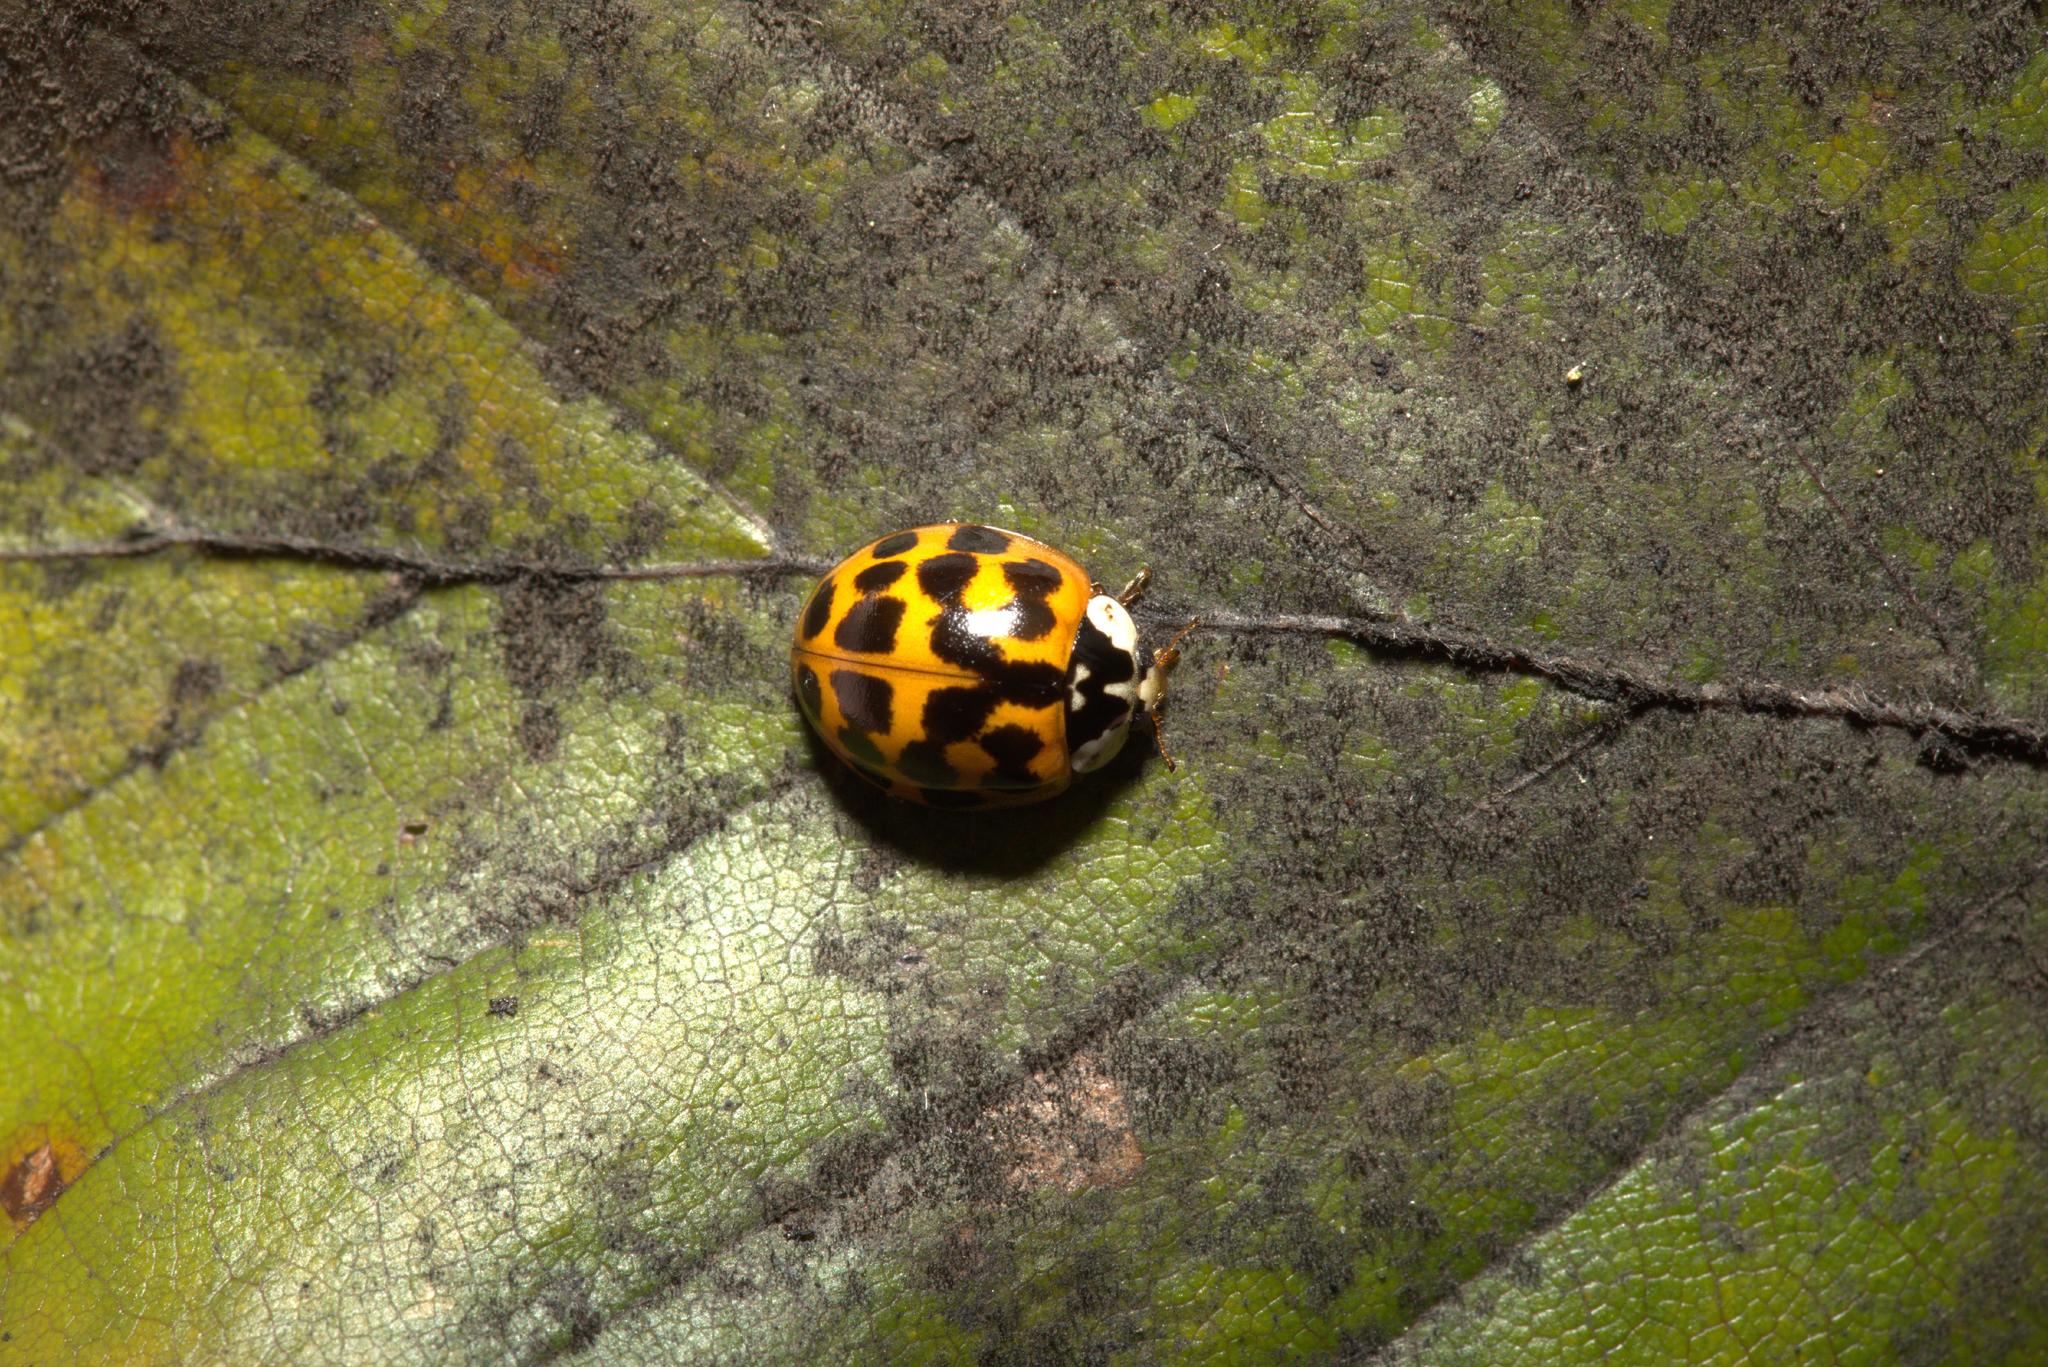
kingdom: Animalia
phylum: Arthropoda
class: Insecta
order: Coleoptera
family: Coccinellidae
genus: Harmonia
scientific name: Harmonia axyridis
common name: Harlequin ladybird
